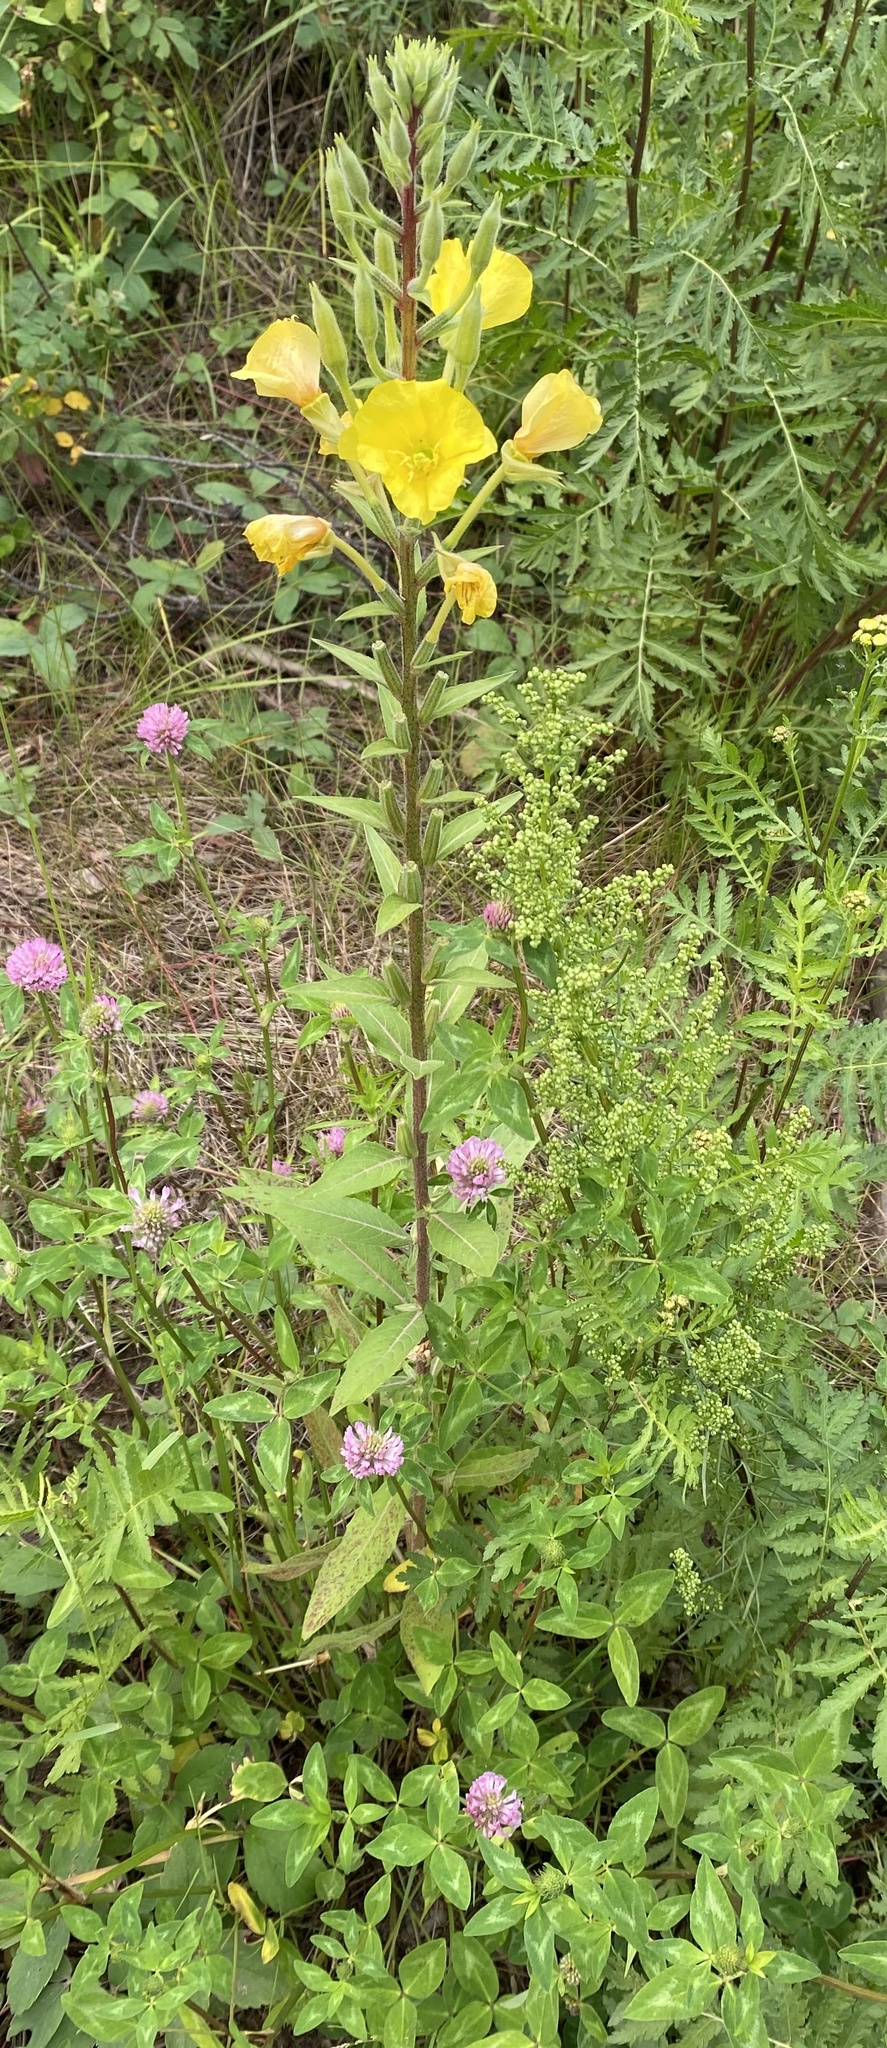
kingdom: Plantae
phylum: Tracheophyta
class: Magnoliopsida
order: Myrtales
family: Onagraceae
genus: Oenothera
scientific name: Oenothera biennis
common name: Common evening-primrose
